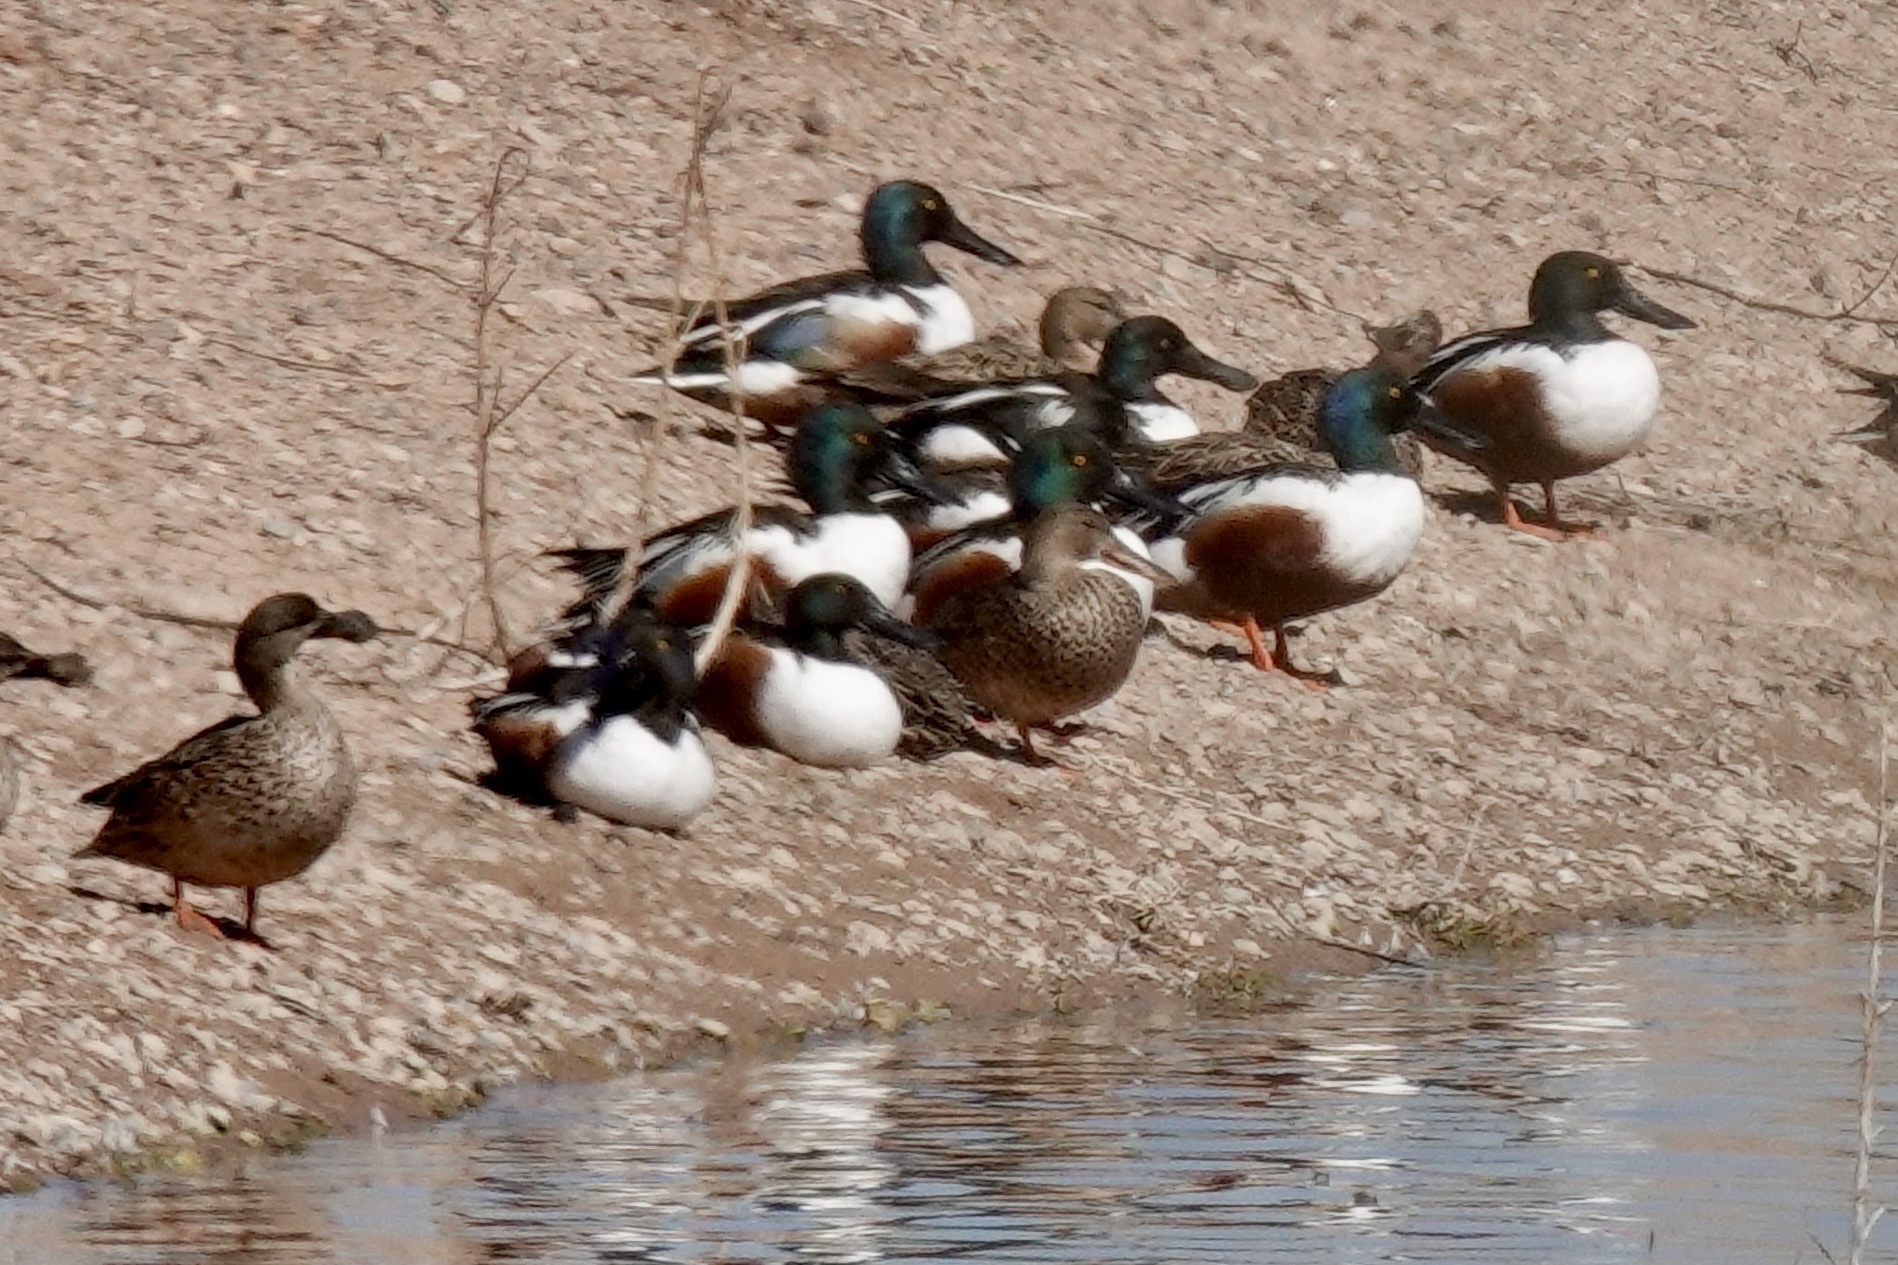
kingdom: Animalia
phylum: Chordata
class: Aves
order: Anseriformes
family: Anatidae
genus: Spatula
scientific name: Spatula clypeata
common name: Northern shoveler
